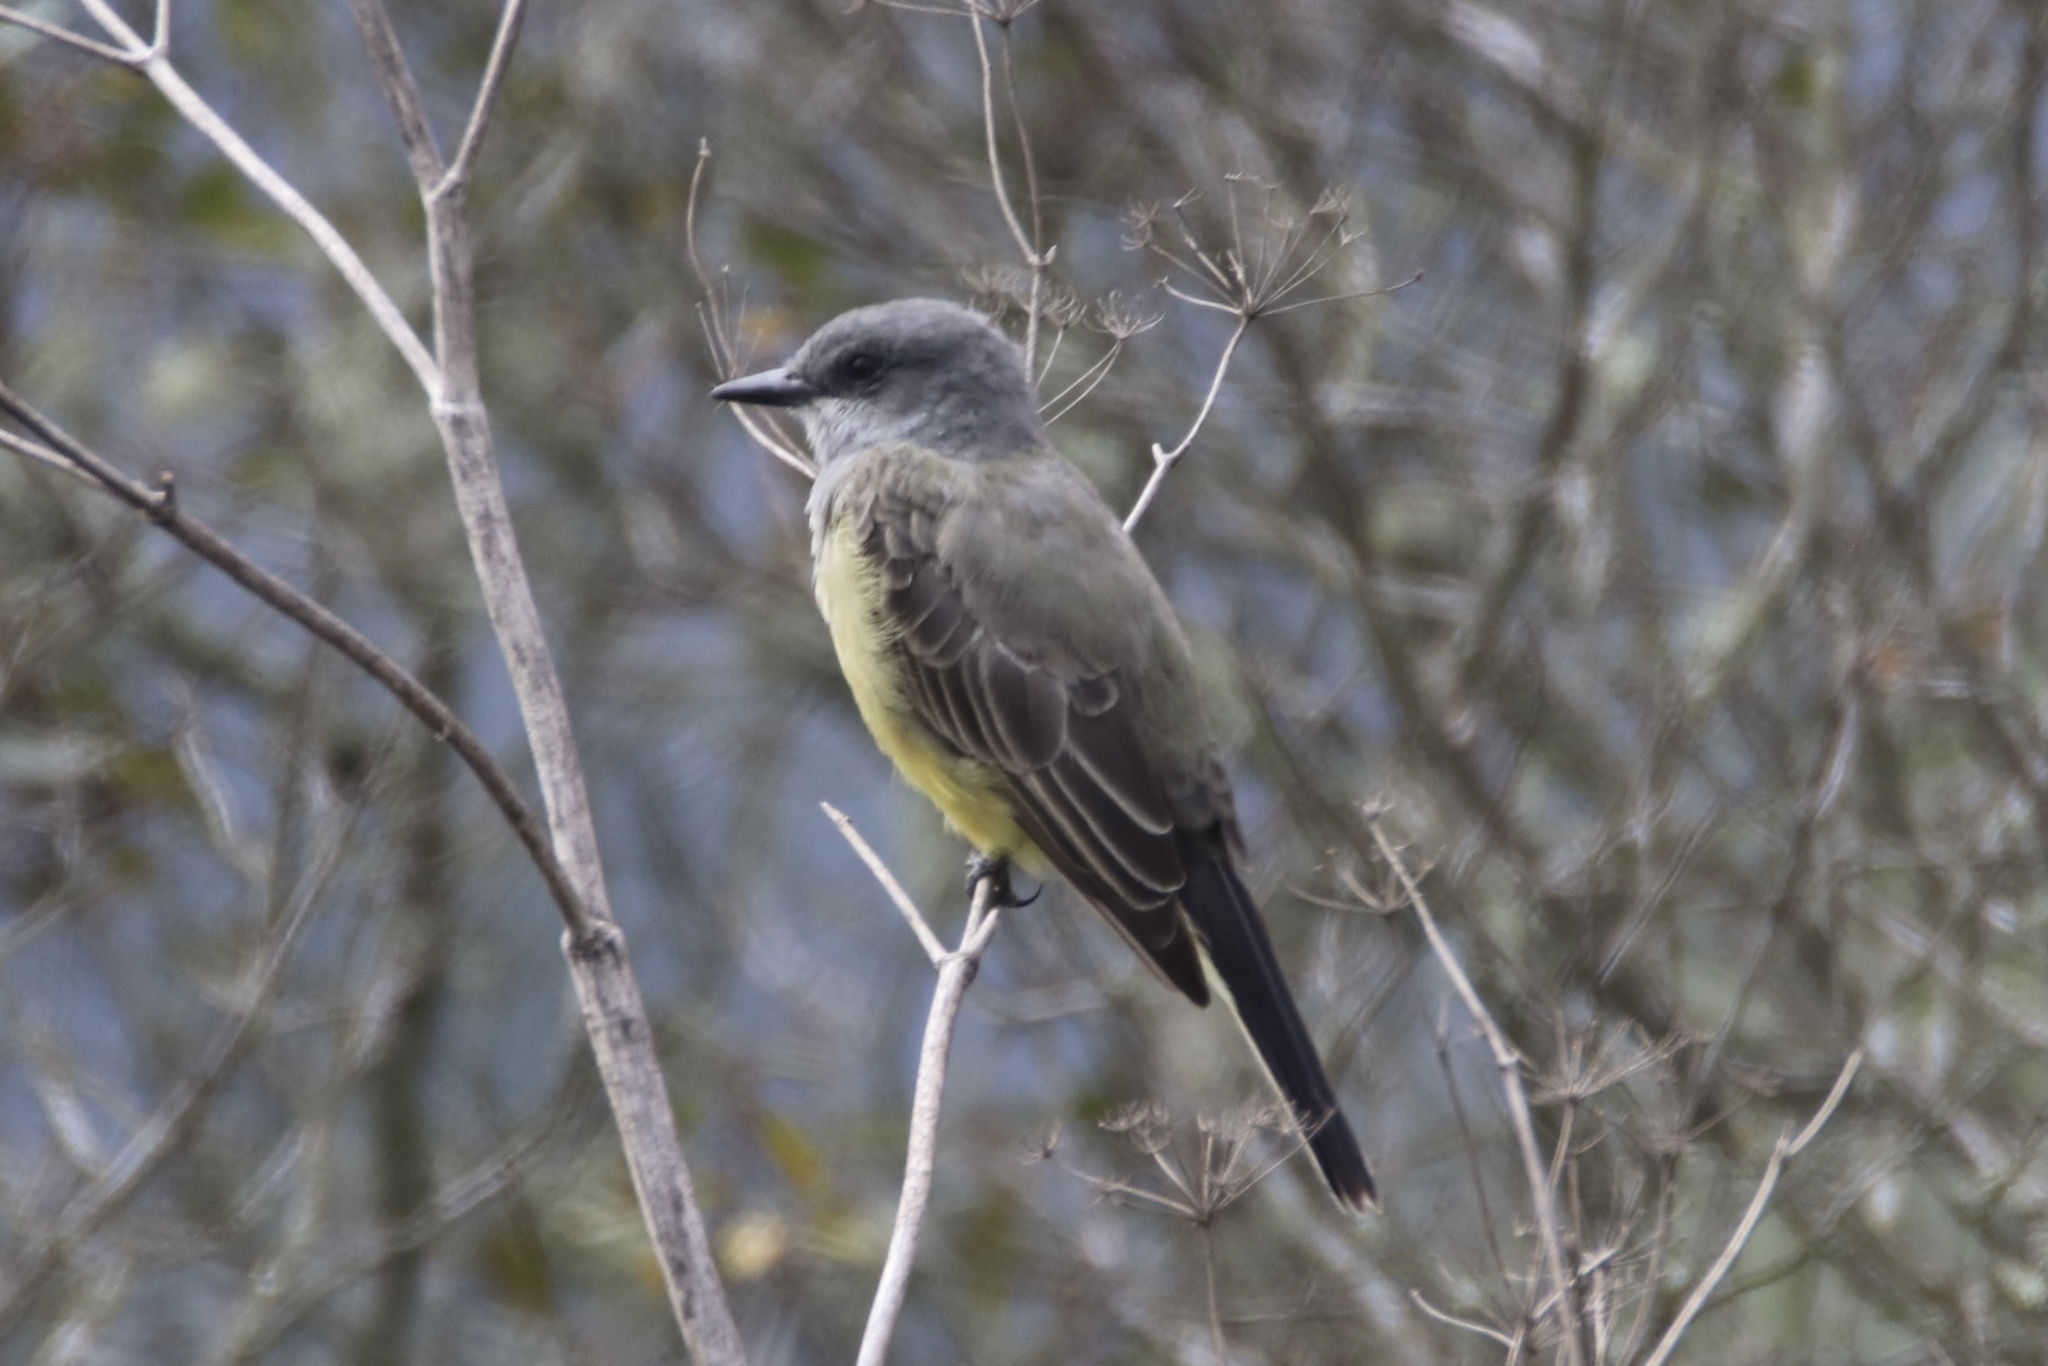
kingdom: Animalia
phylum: Chordata
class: Aves
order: Passeriformes
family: Tyrannidae
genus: Tyrannus
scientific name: Tyrannus vociferans
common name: Cassin's kingbird
